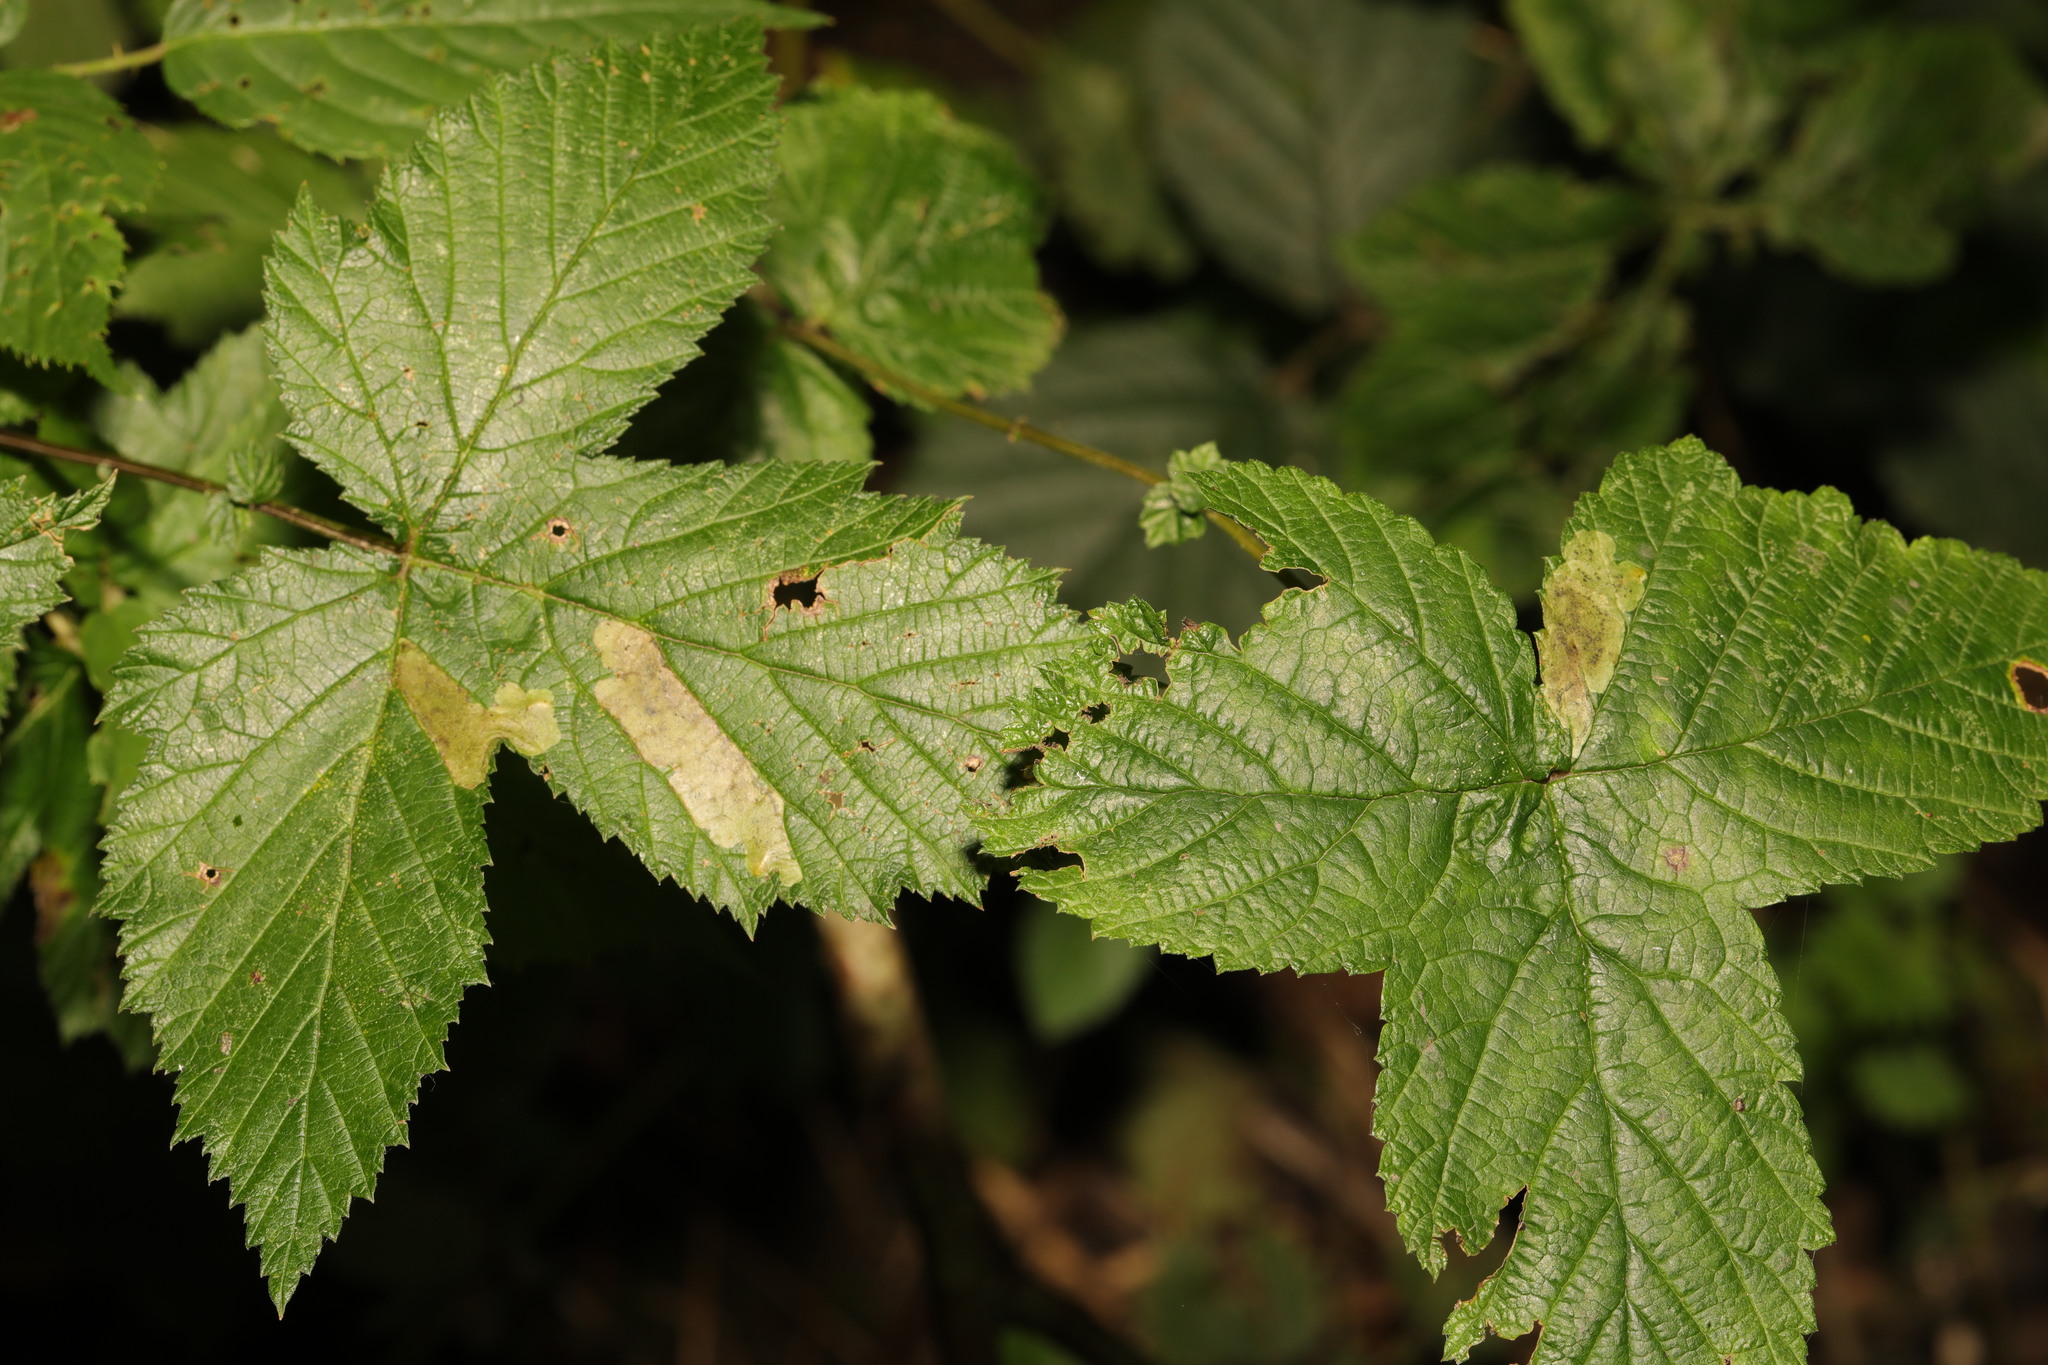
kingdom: Plantae
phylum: Tracheophyta
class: Magnoliopsida
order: Rosales
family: Rosaceae
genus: Filipendula
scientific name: Filipendula ulmaria
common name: Meadowsweet
